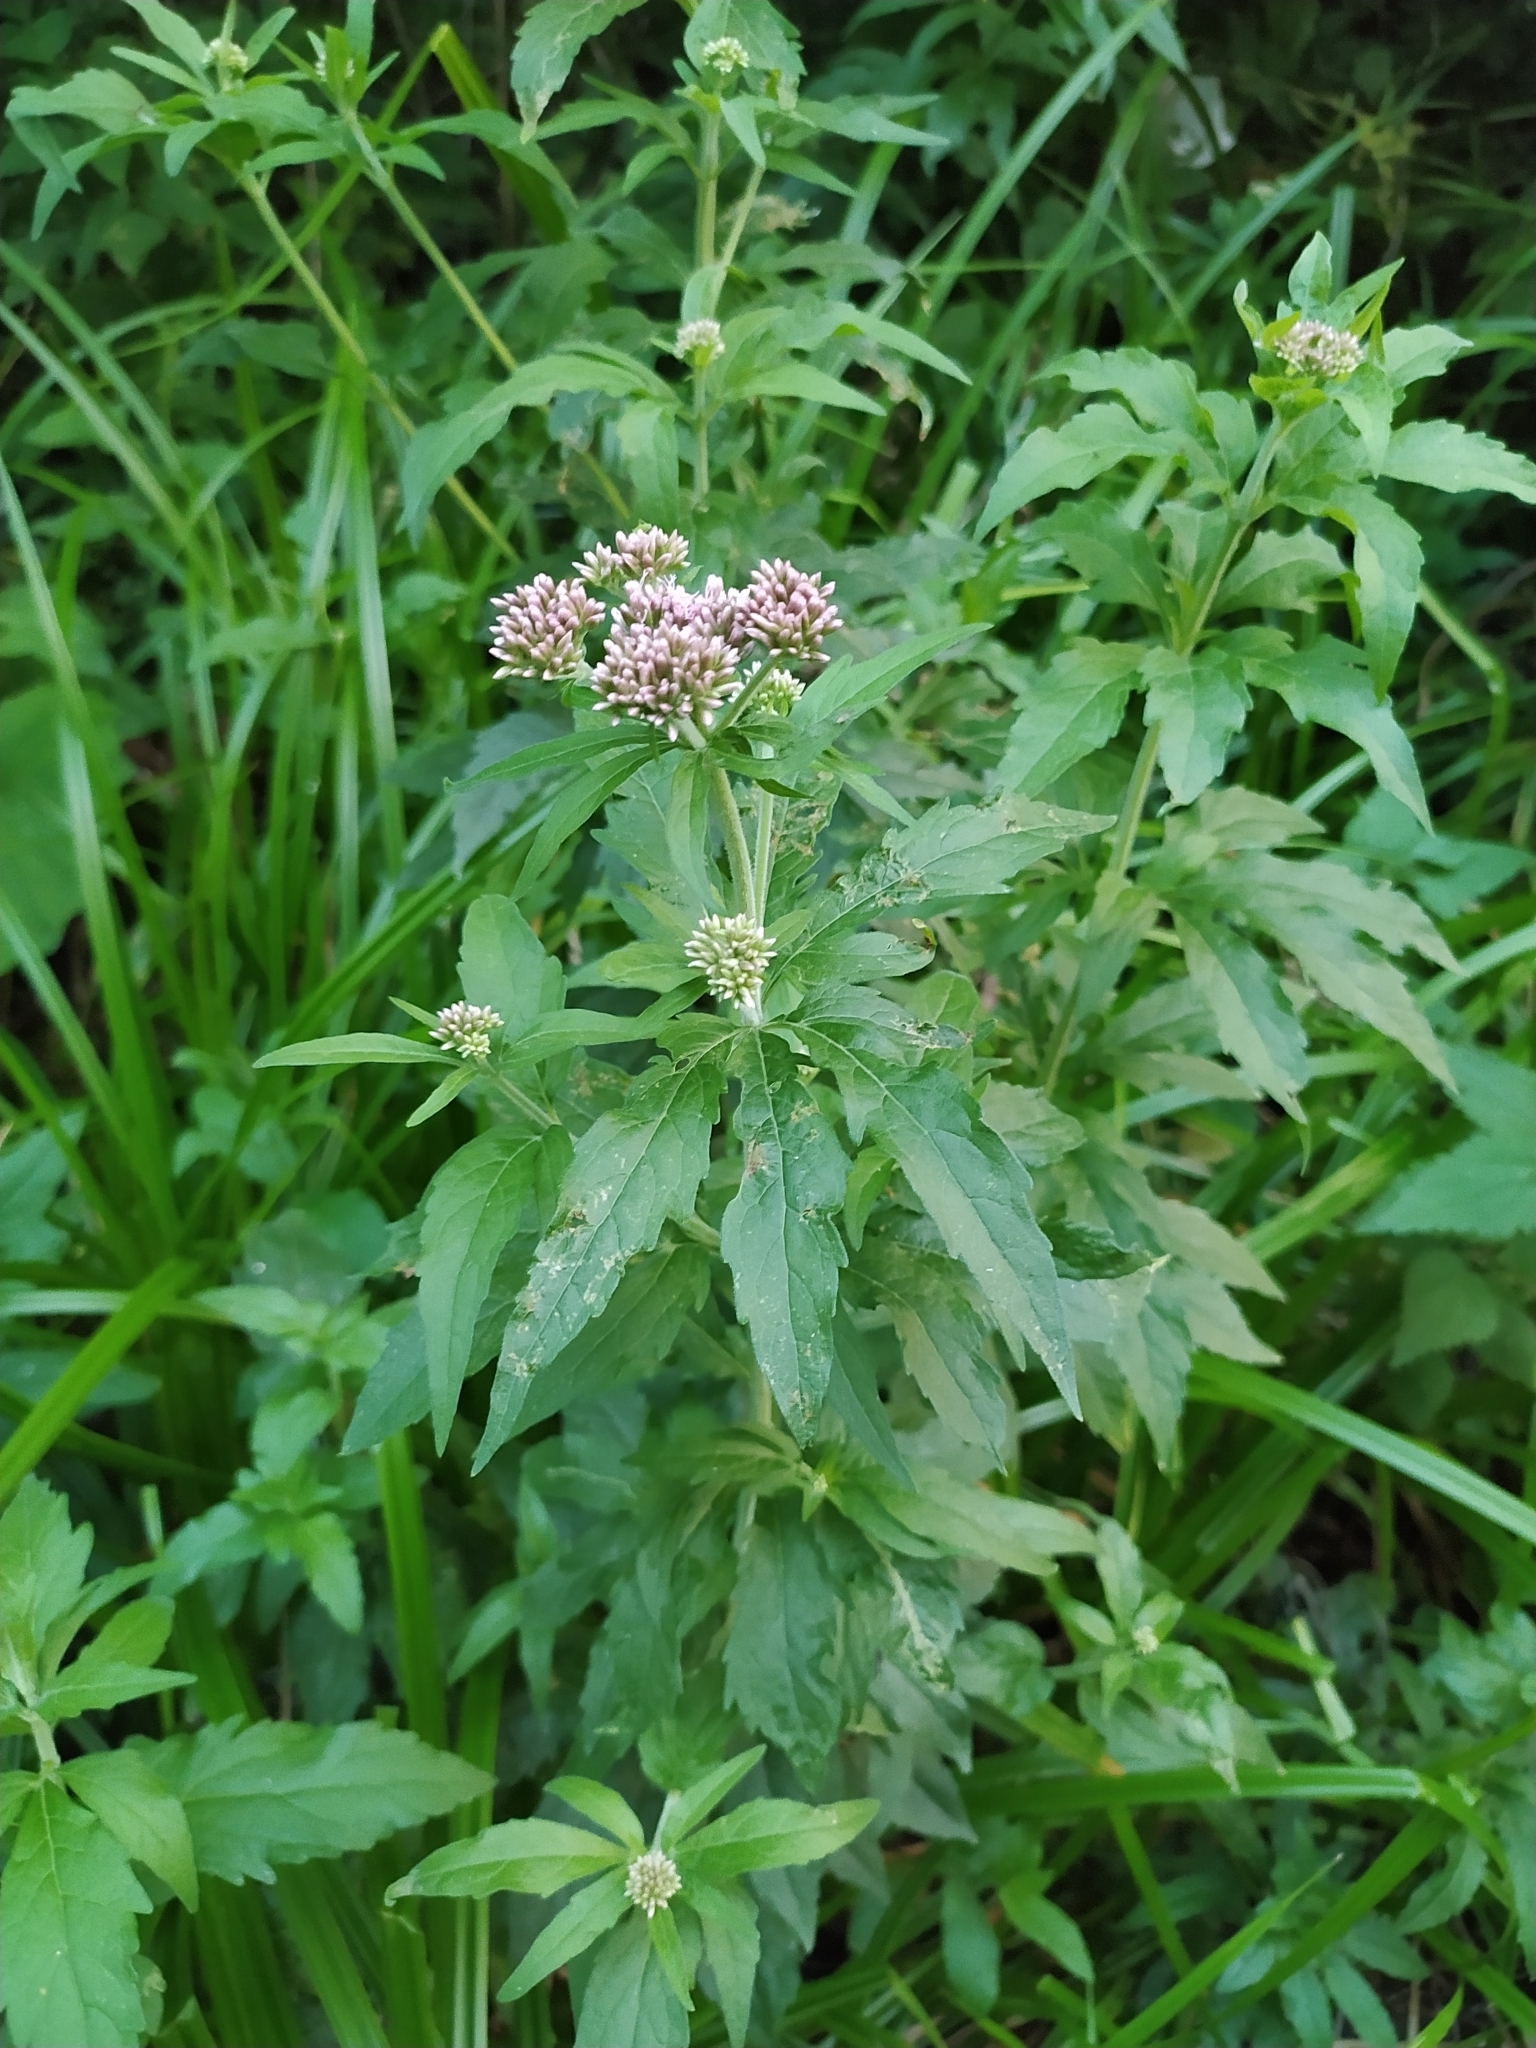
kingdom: Plantae
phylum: Tracheophyta
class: Magnoliopsida
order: Asterales
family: Asteraceae
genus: Eupatorium
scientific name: Eupatorium cannabinum
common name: Hemp-agrimony
